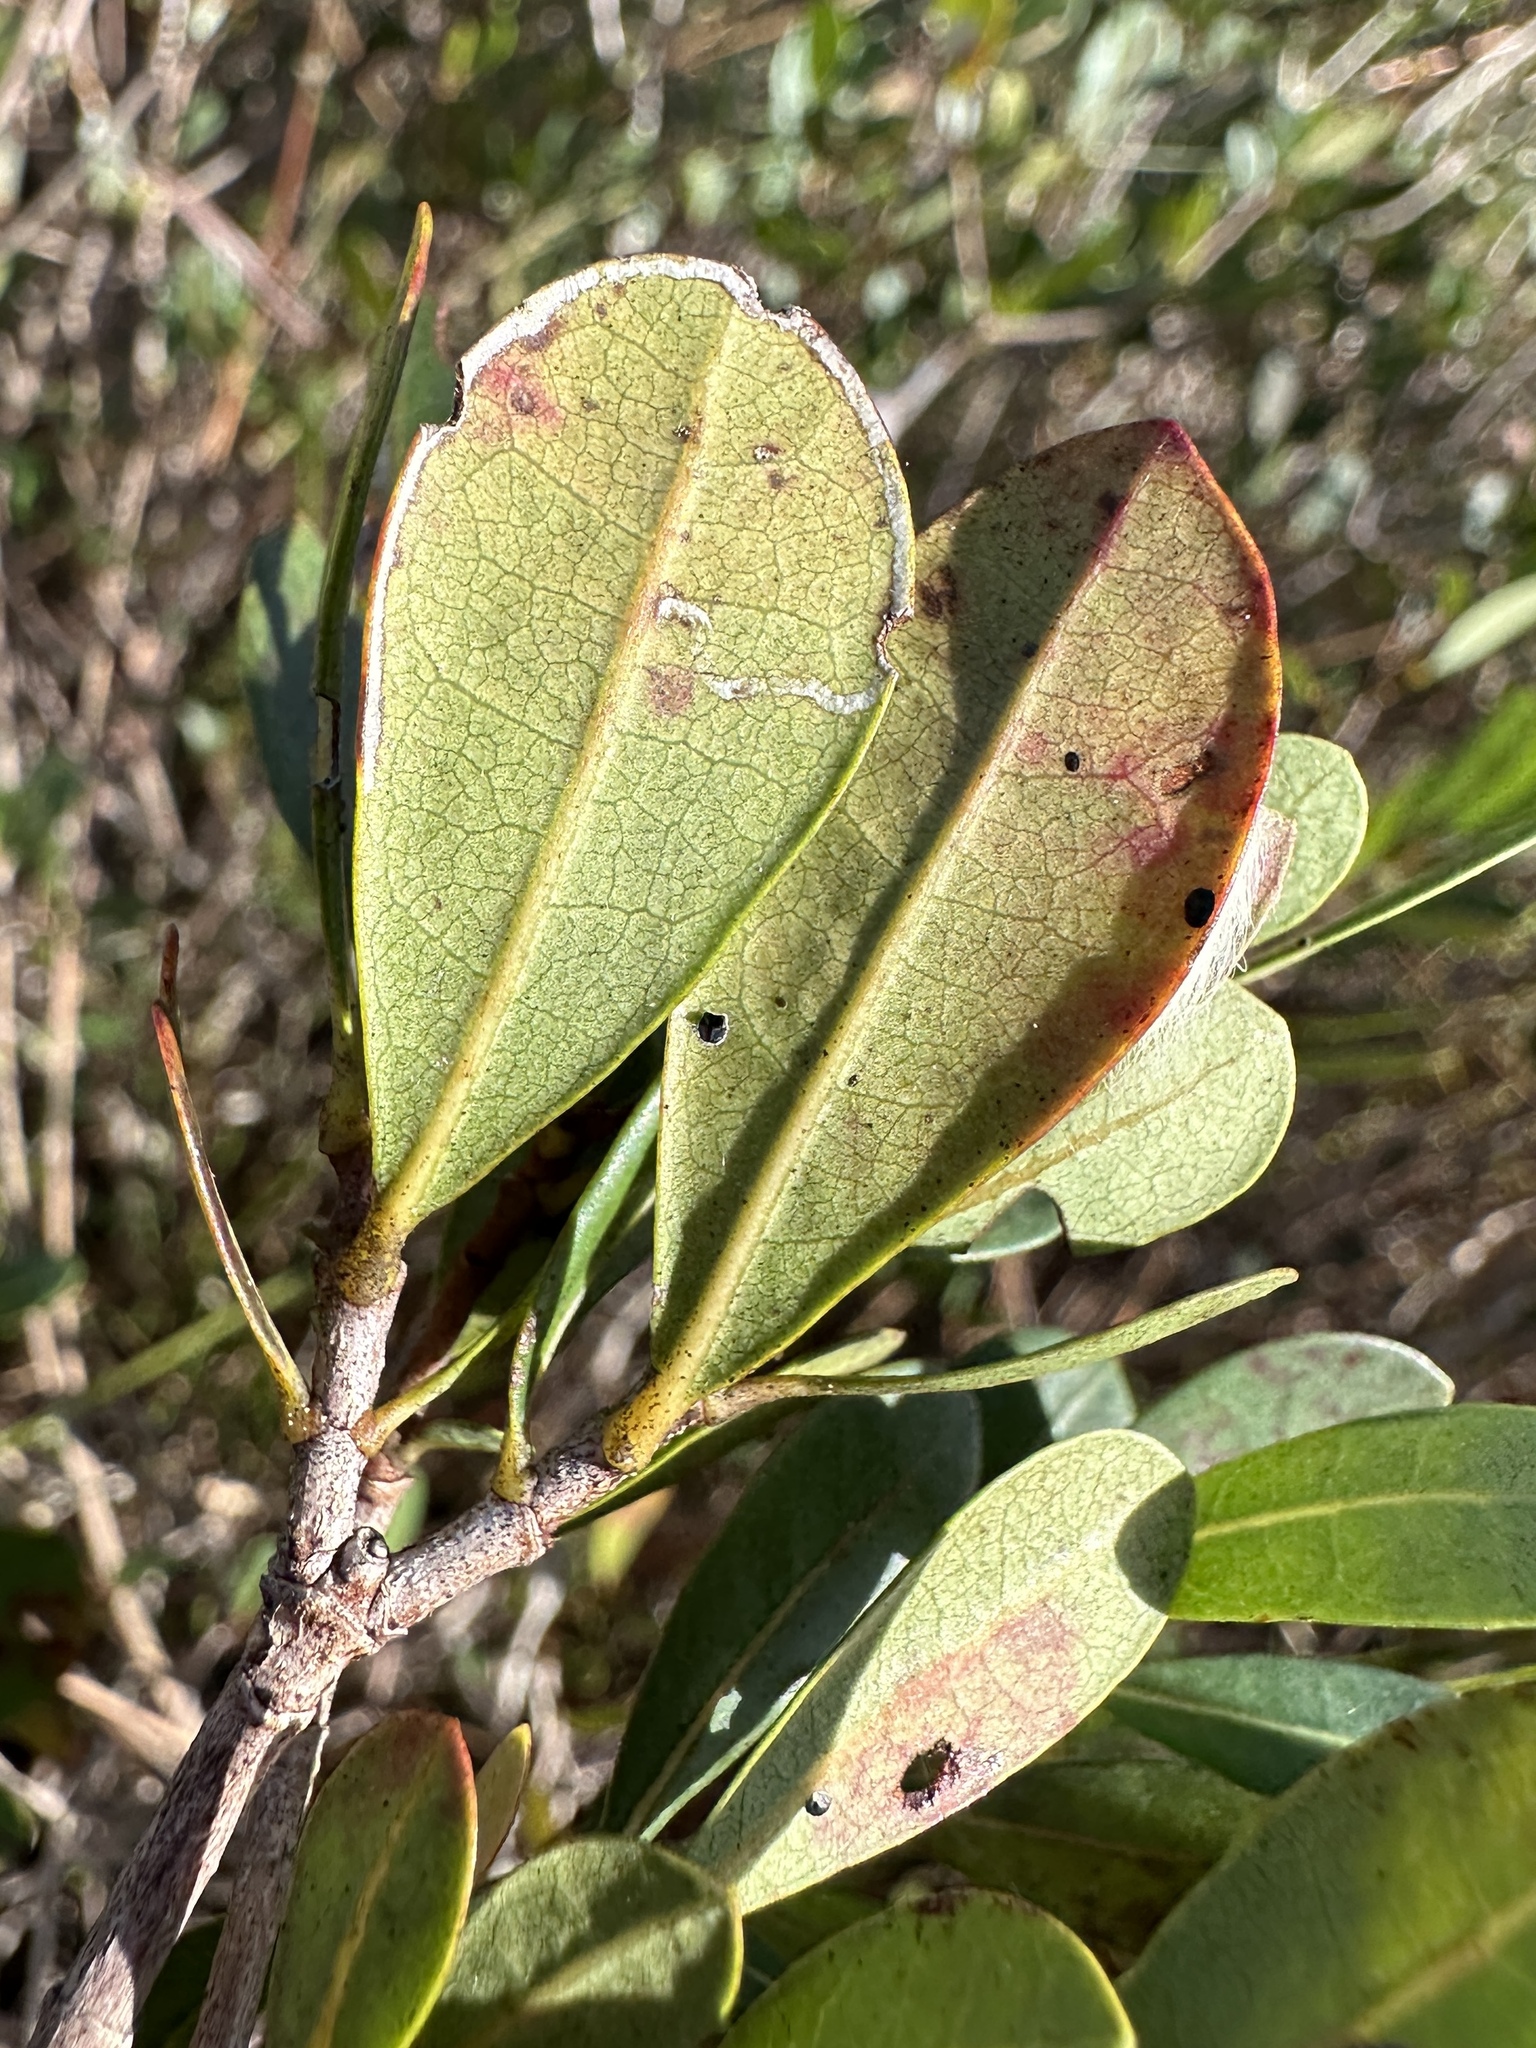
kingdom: Plantae
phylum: Tracheophyta
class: Magnoliopsida
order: Malpighiales
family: Malpighiaceae
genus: Byrsonima
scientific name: Byrsonima lucida
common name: Clam-cherry
